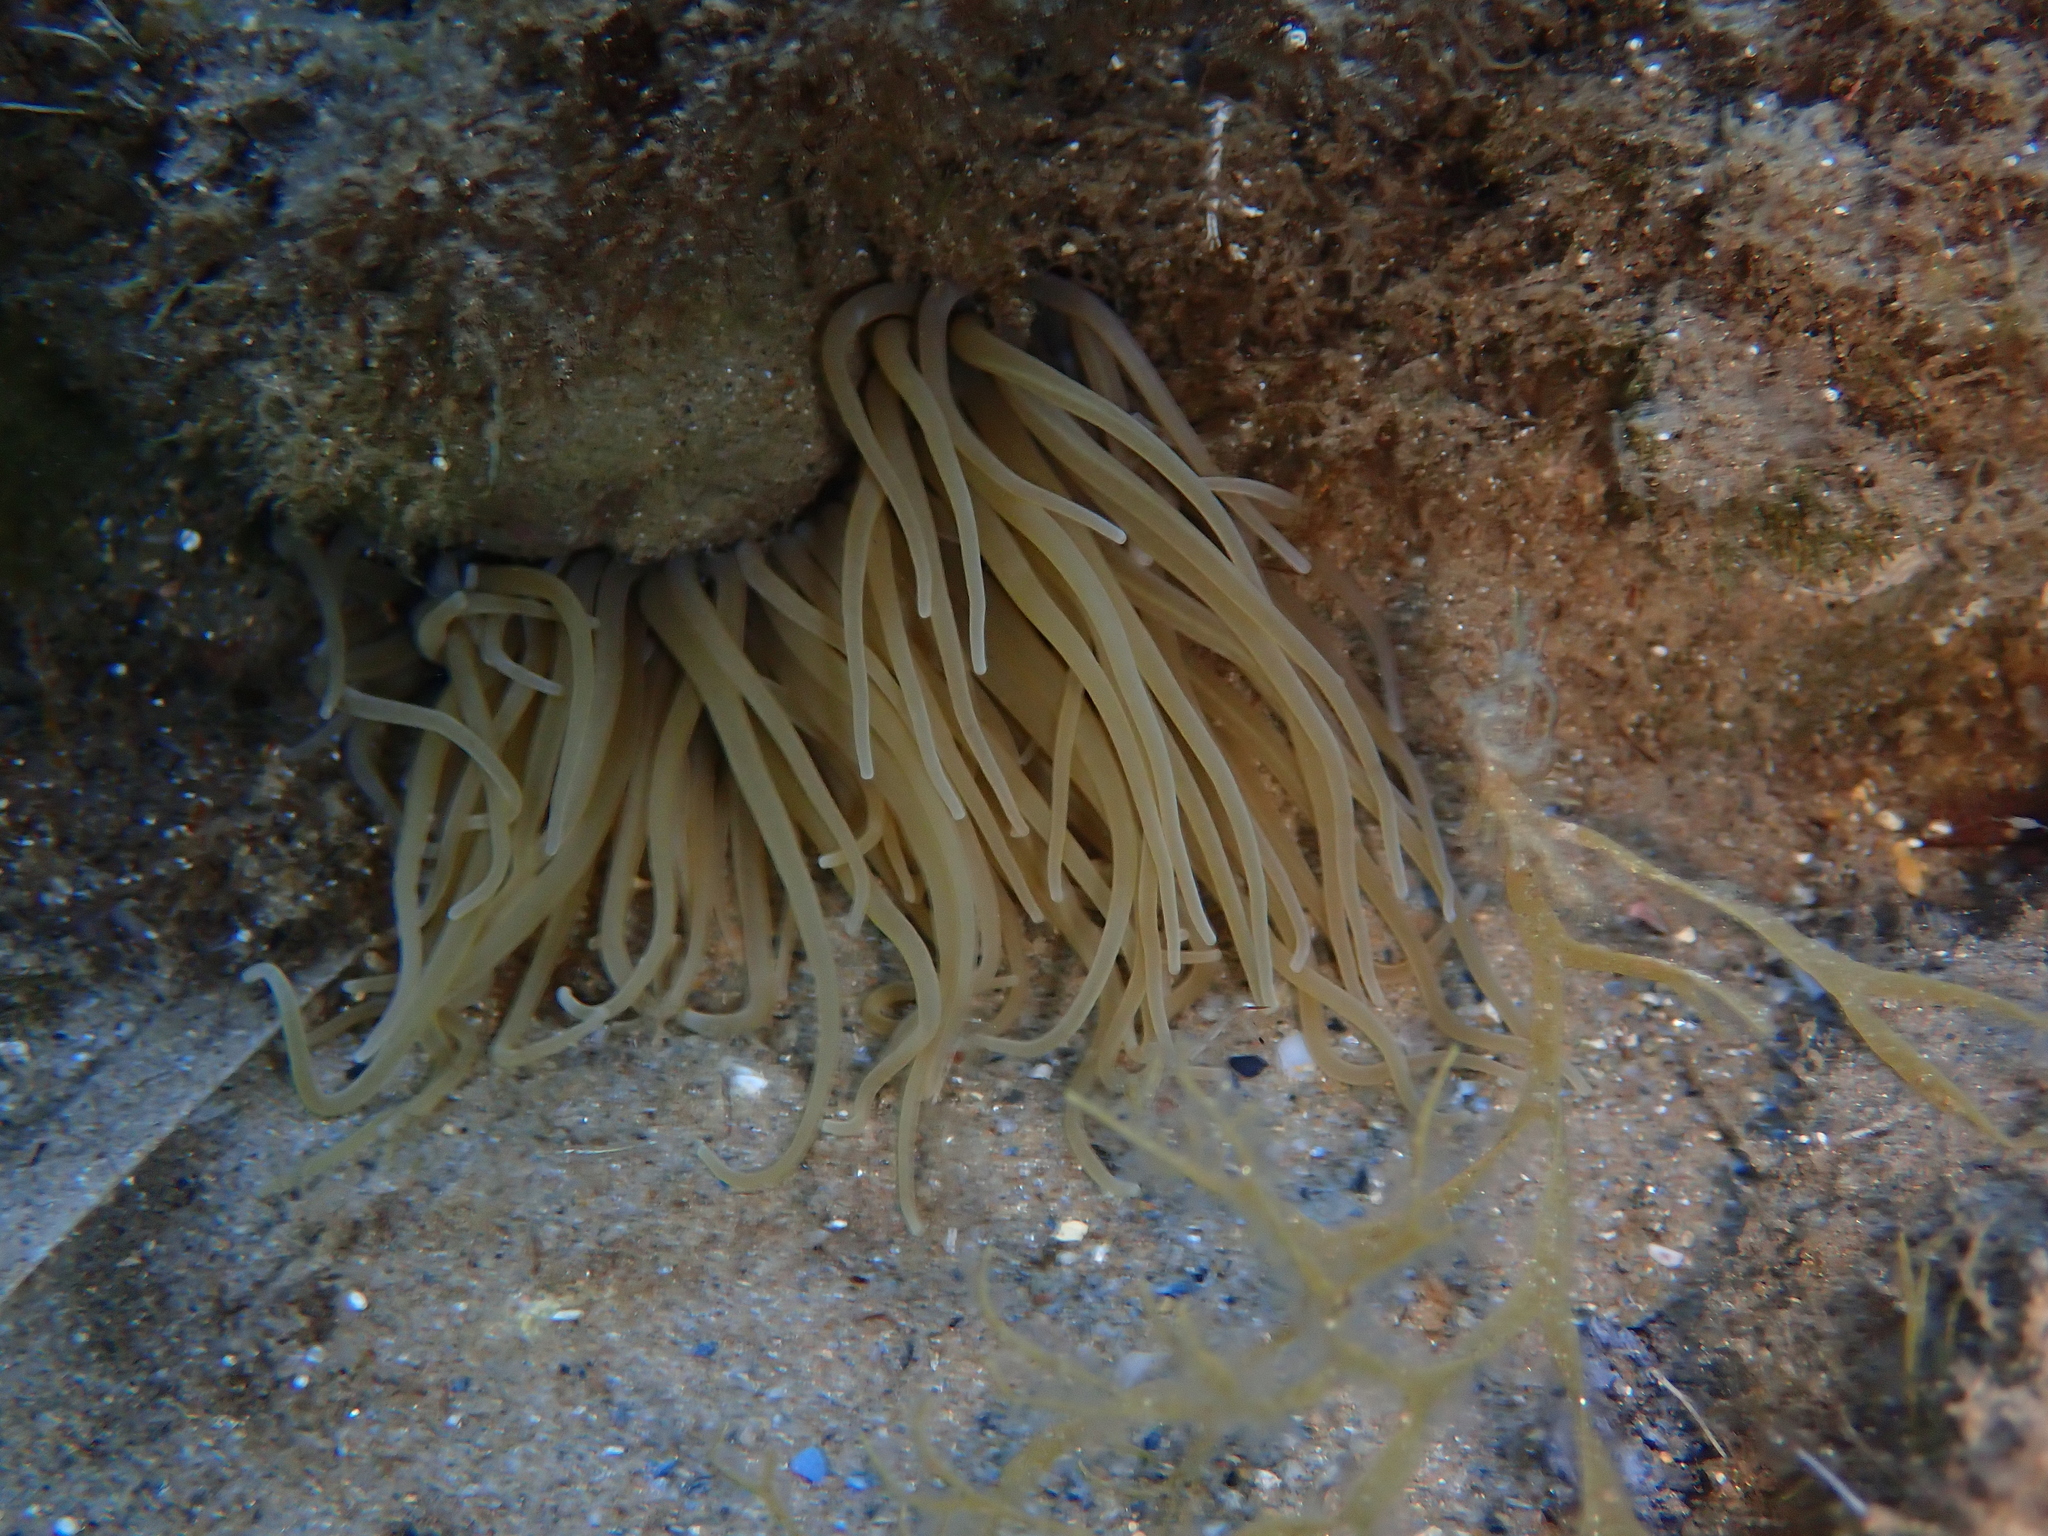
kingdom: Animalia
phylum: Cnidaria
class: Anthozoa
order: Actiniaria
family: Actiniidae
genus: Anemonia
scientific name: Anemonia viridis
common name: Snakelocks anemone
